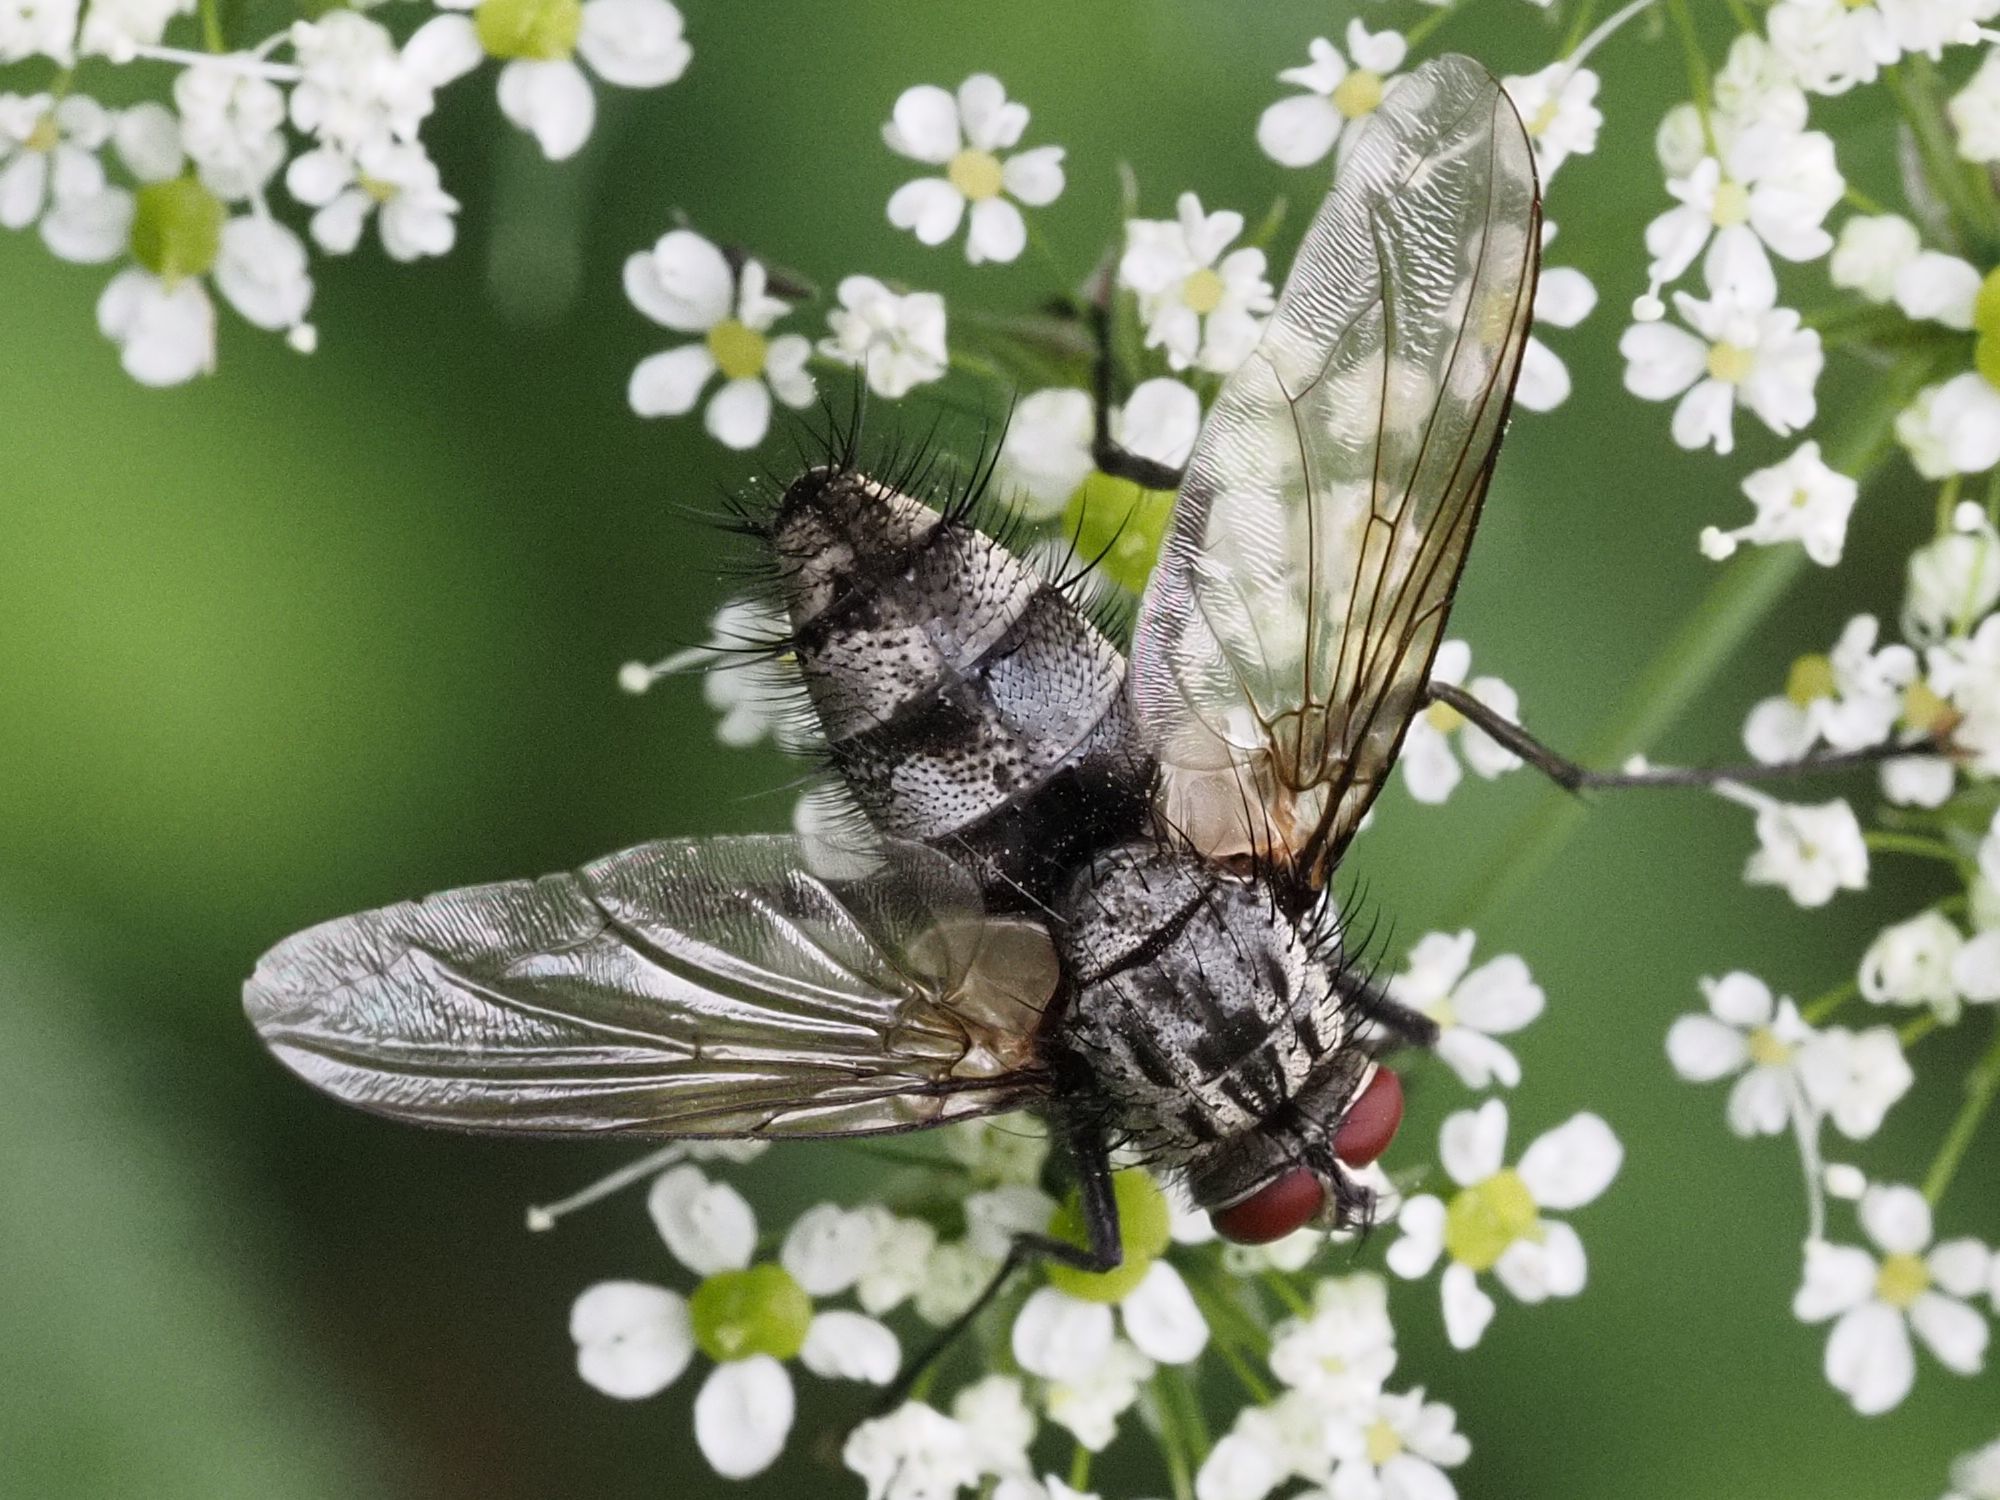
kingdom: Animalia
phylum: Arthropoda
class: Insecta
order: Diptera
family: Tachinidae
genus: Dinera
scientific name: Dinera ferina
